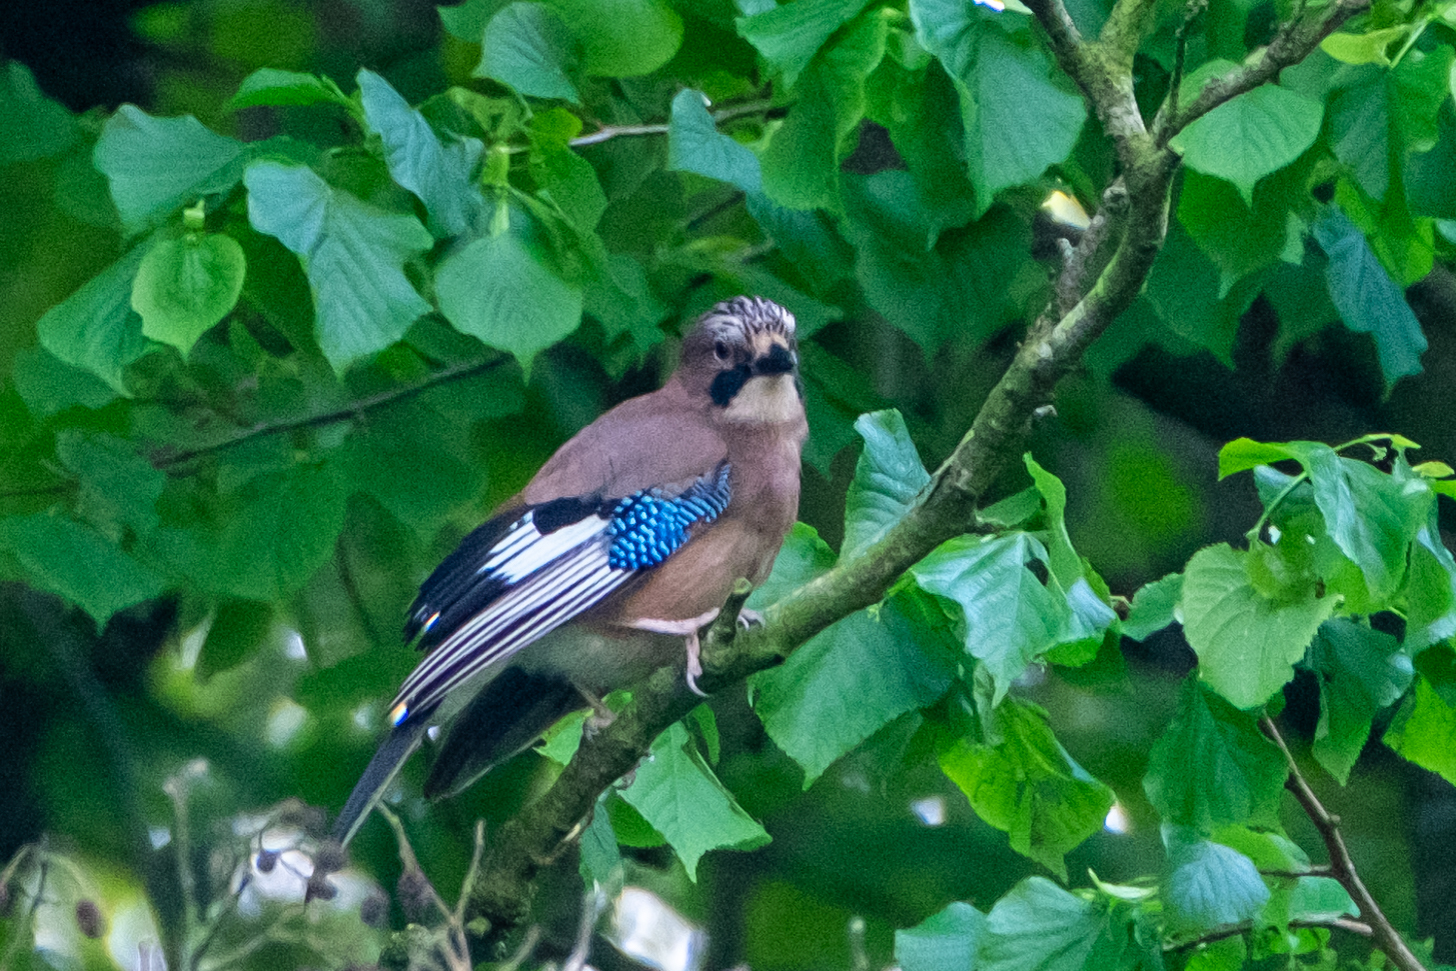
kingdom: Animalia
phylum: Chordata
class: Aves
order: Passeriformes
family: Corvidae
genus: Garrulus
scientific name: Garrulus glandarius
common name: Eurasian jay
